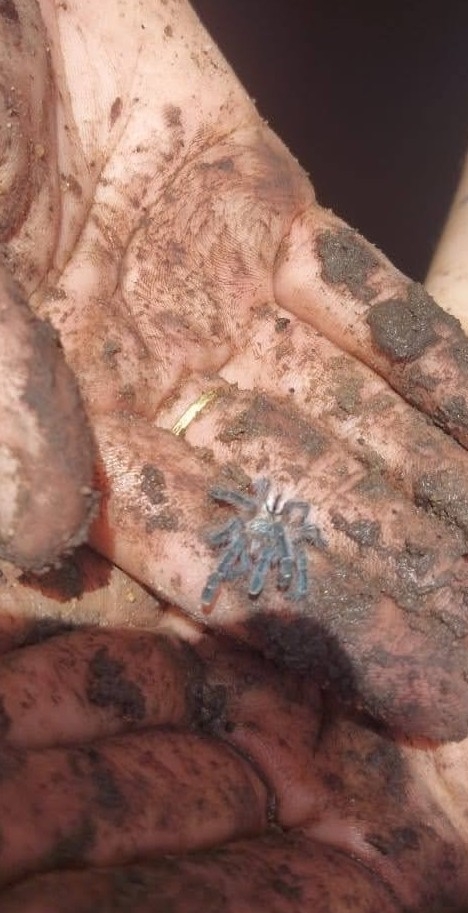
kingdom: Animalia
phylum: Arthropoda
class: Arachnida
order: Araneae
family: Theraphosidae
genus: Iridopelma
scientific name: Iridopelma hirsutum
